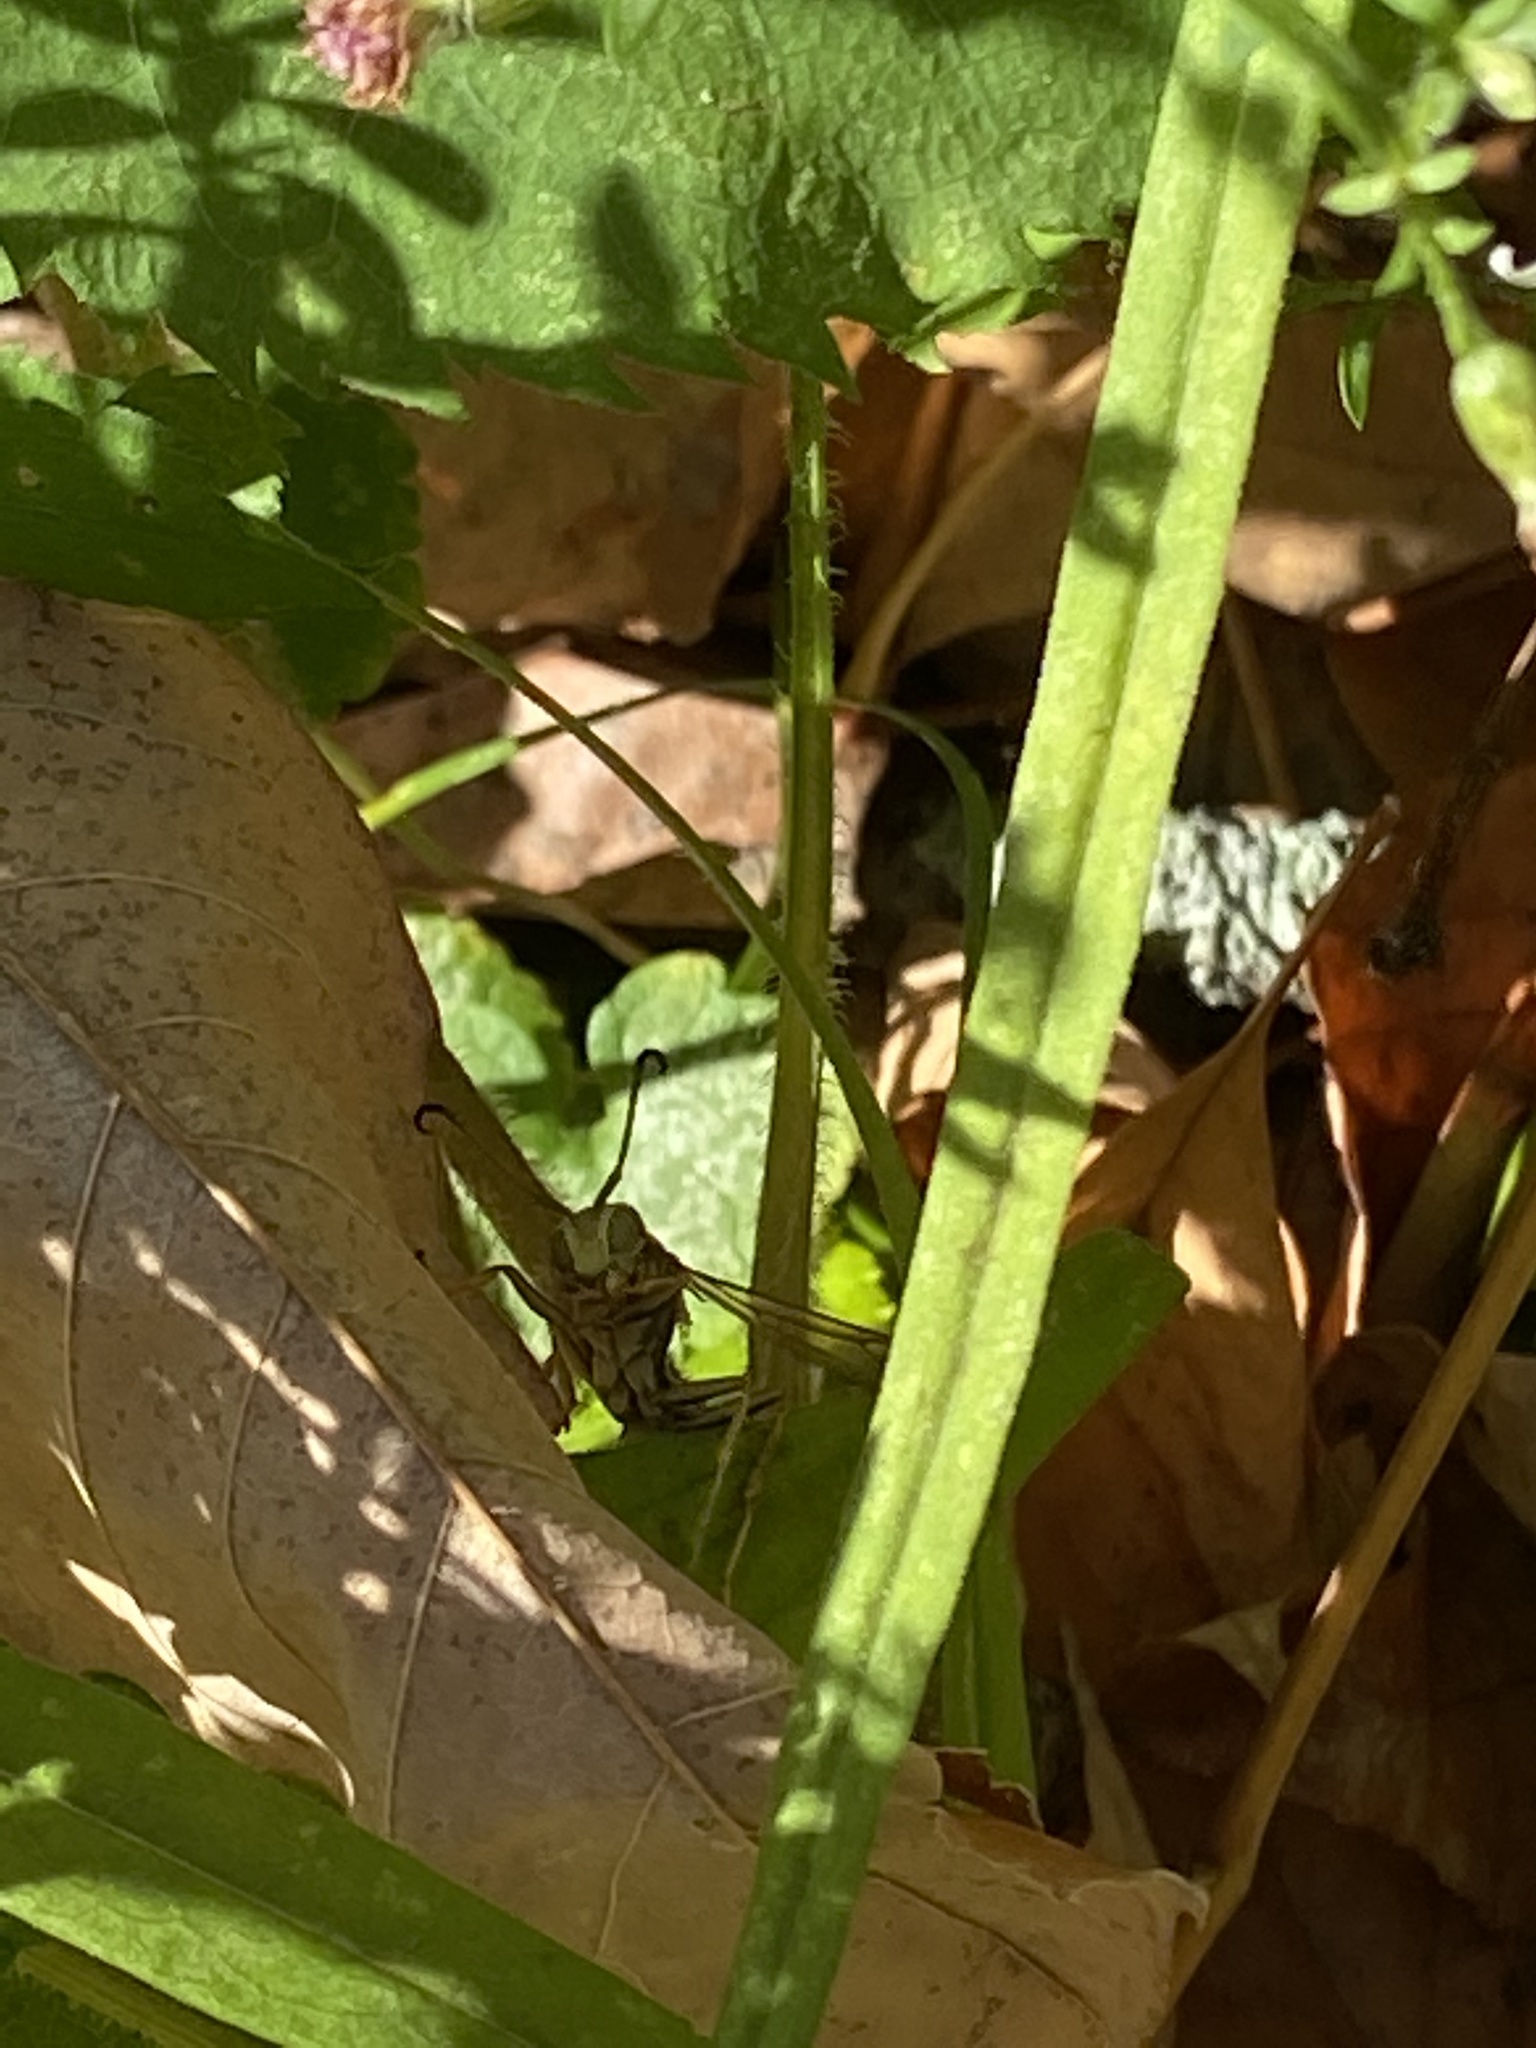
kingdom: Animalia
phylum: Arthropoda
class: Insecta
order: Hymenoptera
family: Eumenidae
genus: Polistes
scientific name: Polistes fuscatus
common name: Dark paper wasp
